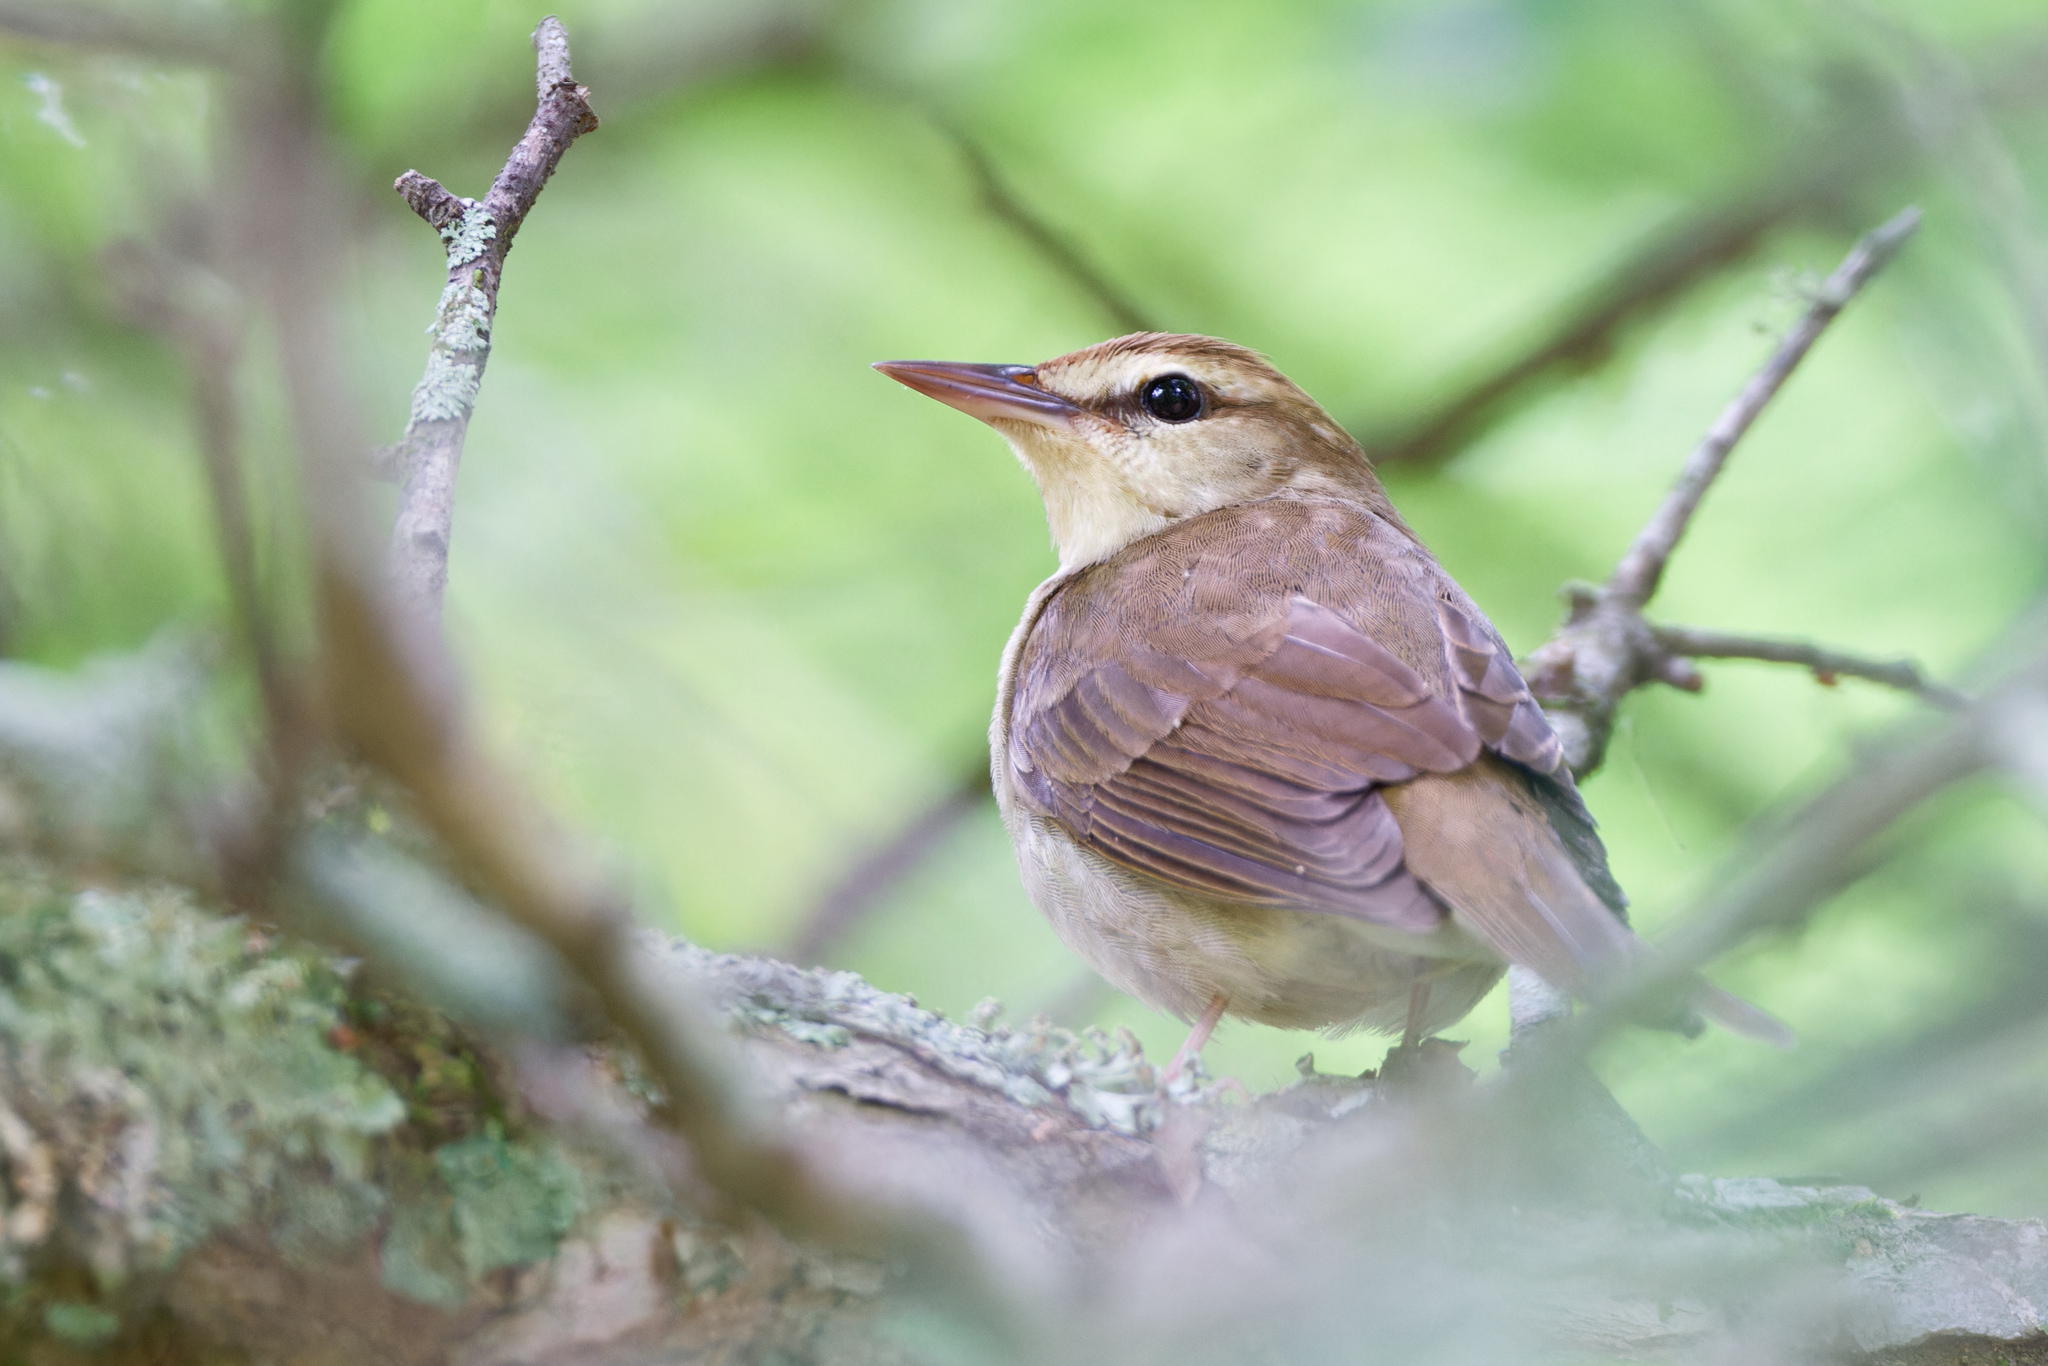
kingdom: Animalia
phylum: Chordata
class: Aves
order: Passeriformes
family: Parulidae
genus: Limnothlypis
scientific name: Limnothlypis swainsonii
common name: Swainson's warbler
